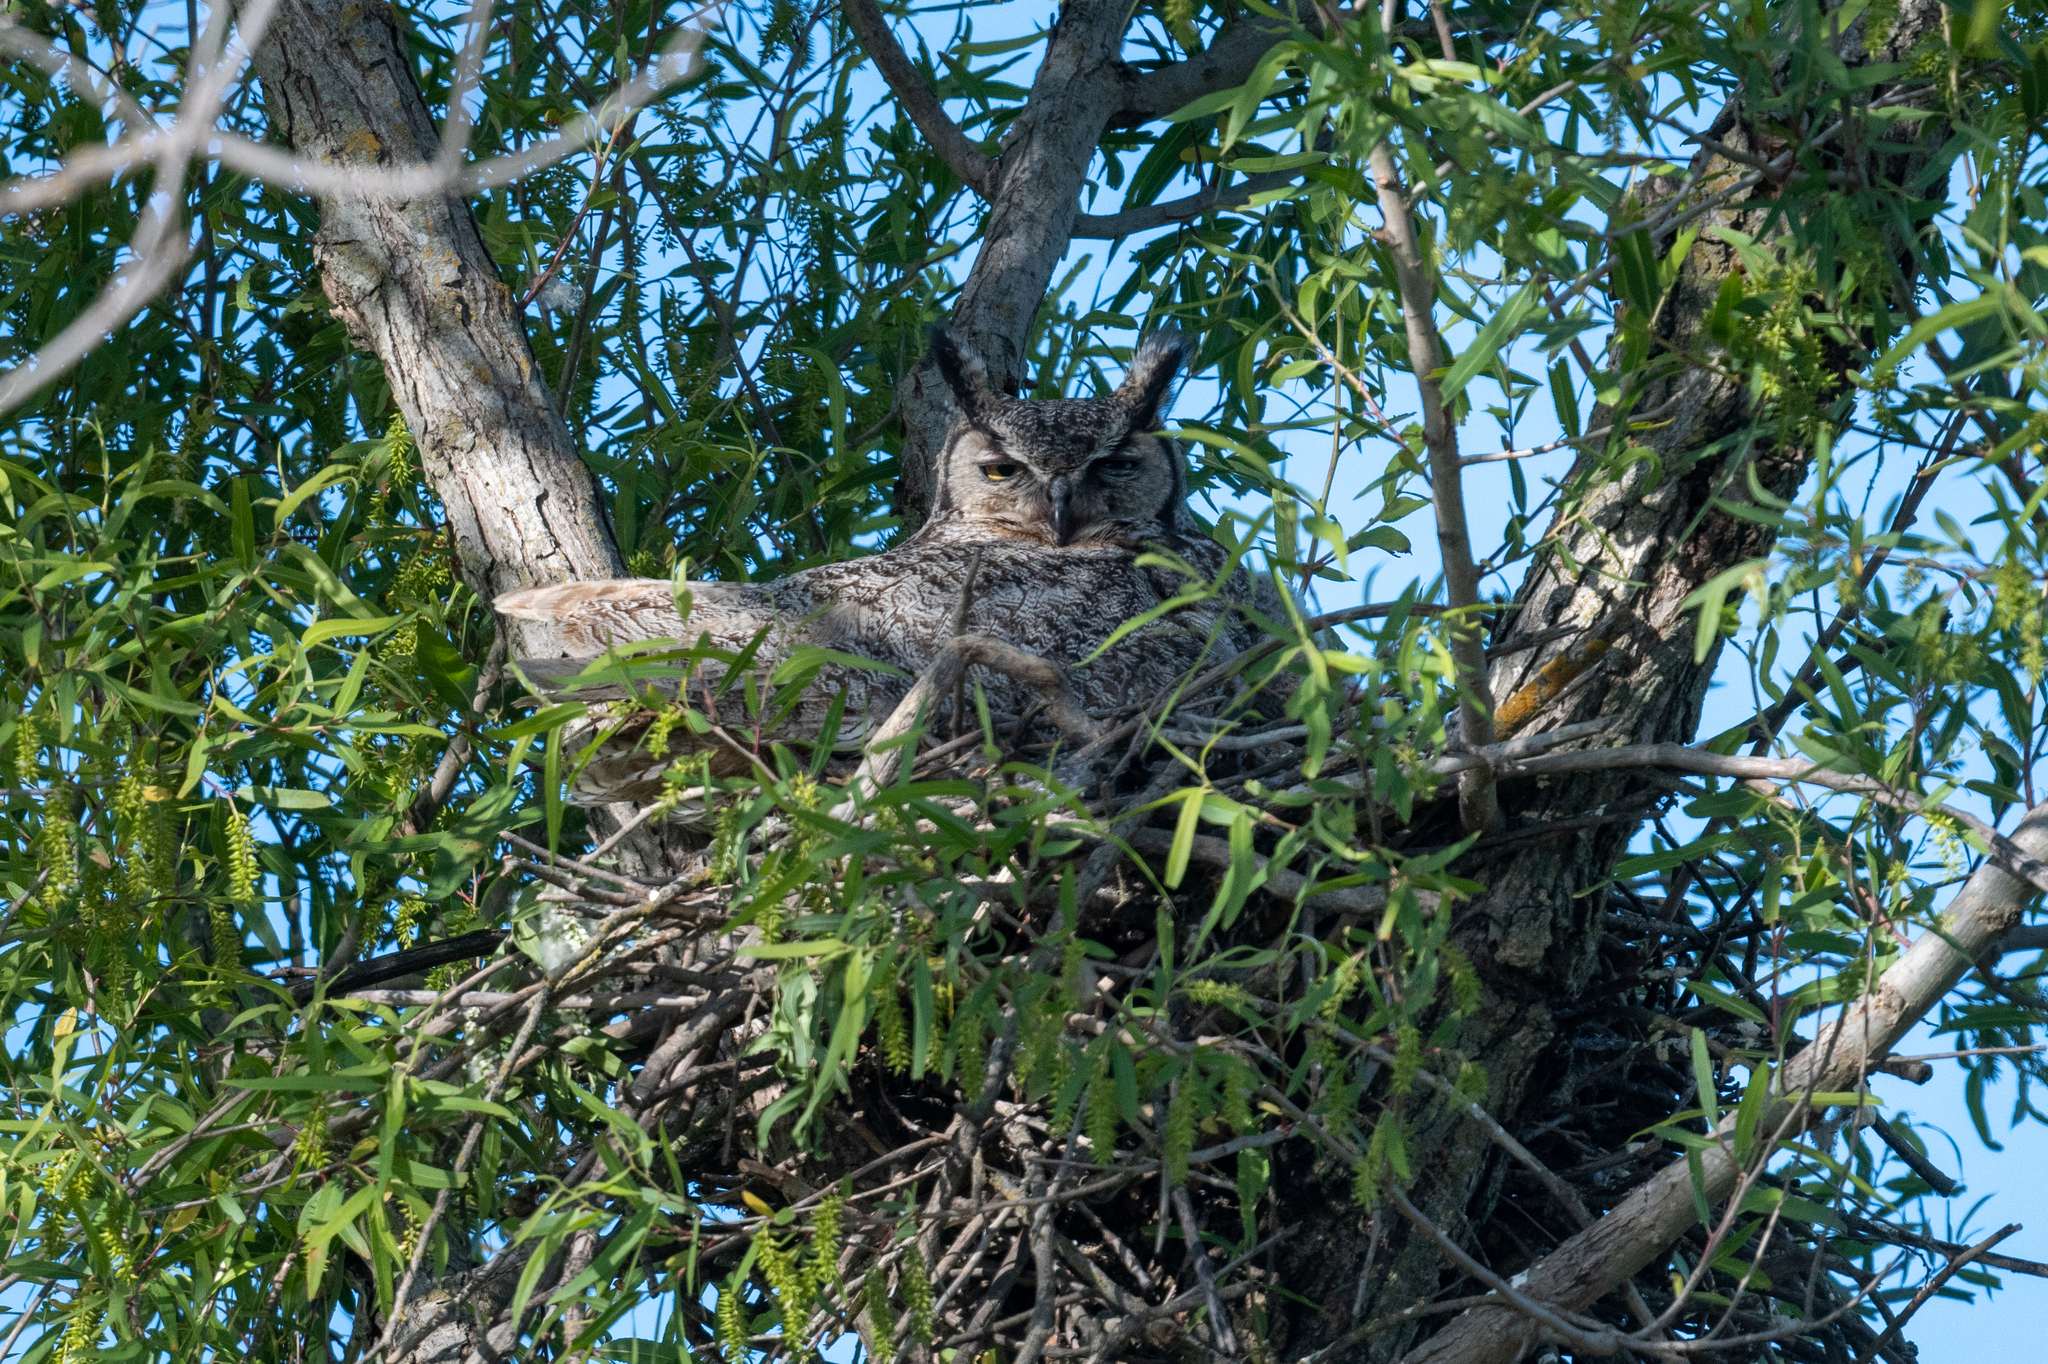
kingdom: Animalia
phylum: Chordata
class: Aves
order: Strigiformes
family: Strigidae
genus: Bubo
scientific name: Bubo virginianus
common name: Great horned owl
